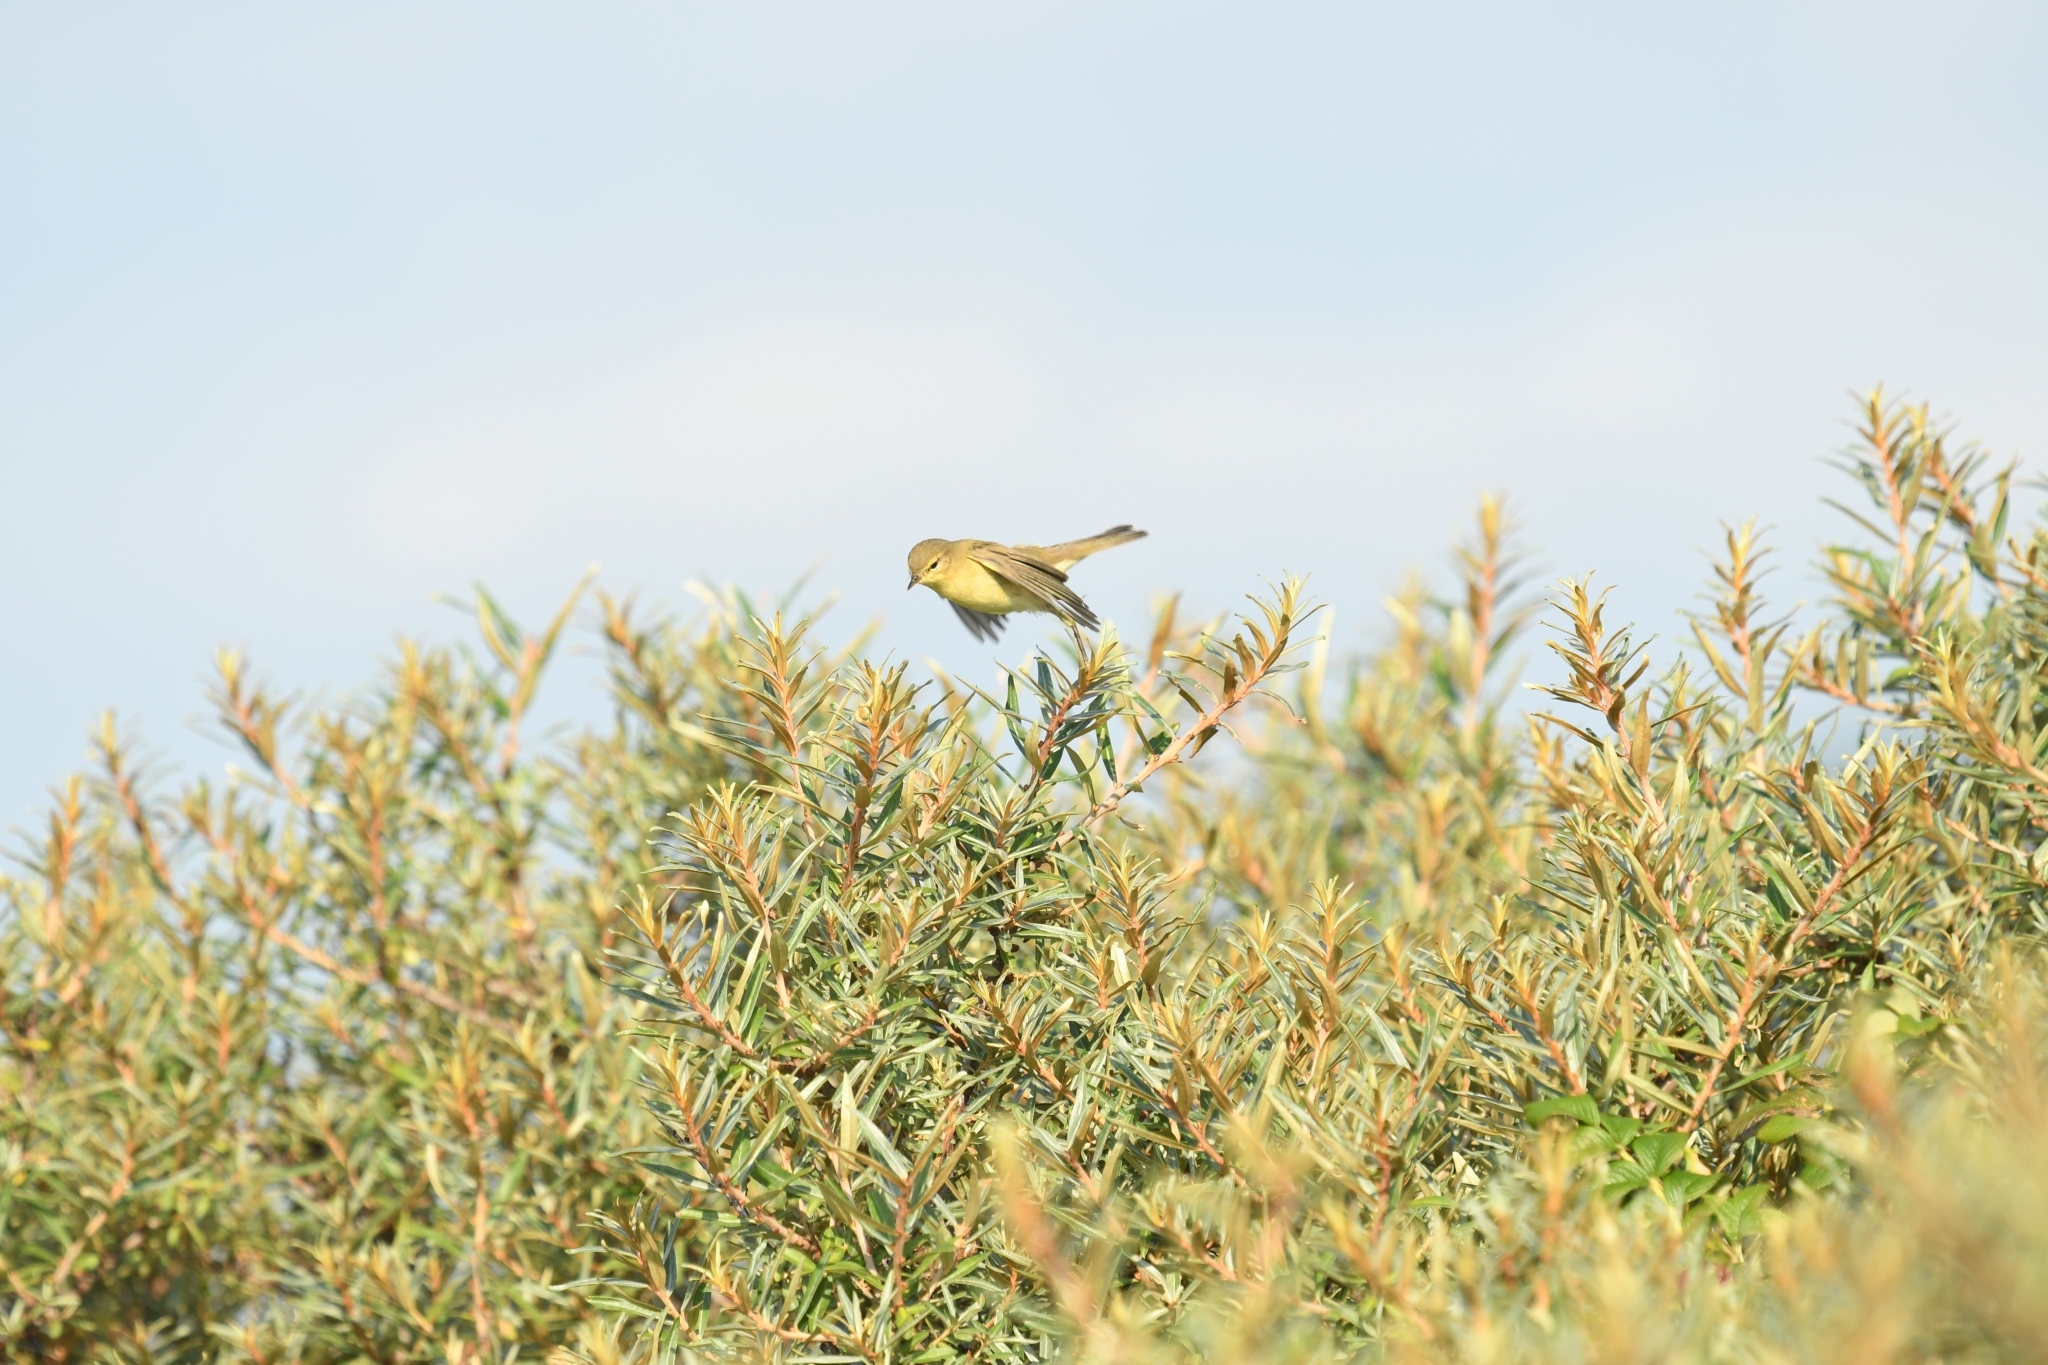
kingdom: Animalia
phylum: Chordata
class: Aves
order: Passeriformes
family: Phylloscopidae
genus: Phylloscopus
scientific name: Phylloscopus trochilus
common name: Willow warbler
